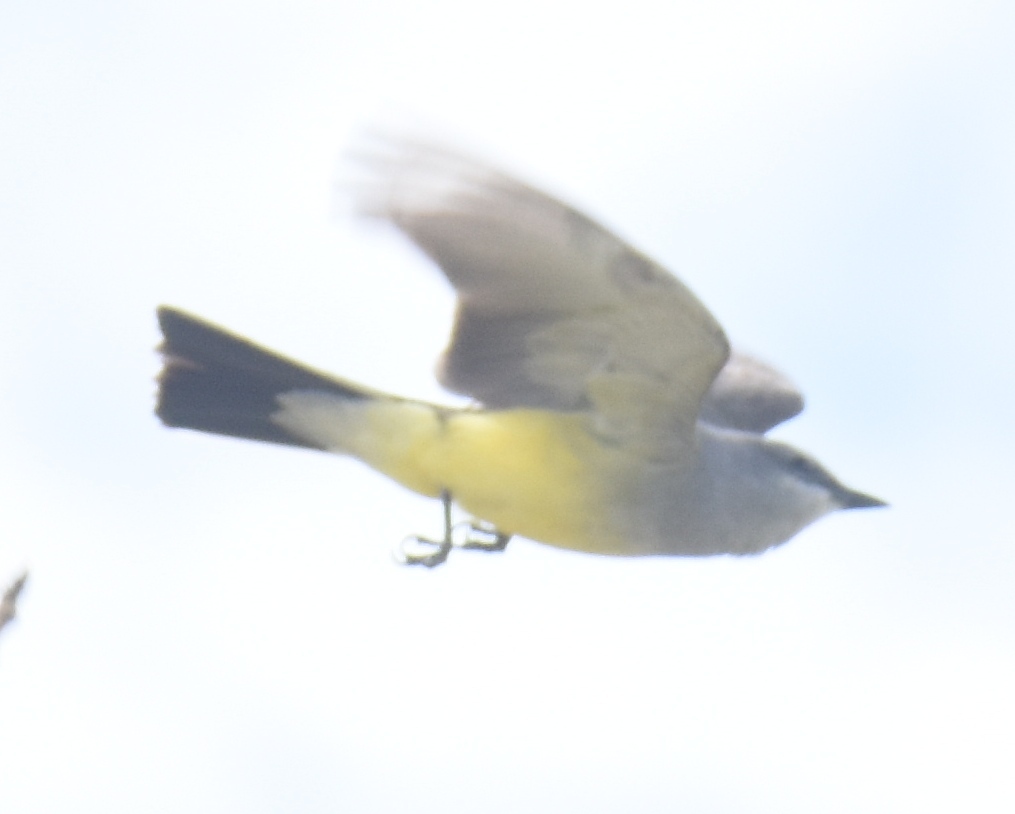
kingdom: Animalia
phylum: Chordata
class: Aves
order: Passeriformes
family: Tyrannidae
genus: Tyrannus
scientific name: Tyrannus verticalis
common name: Western kingbird
